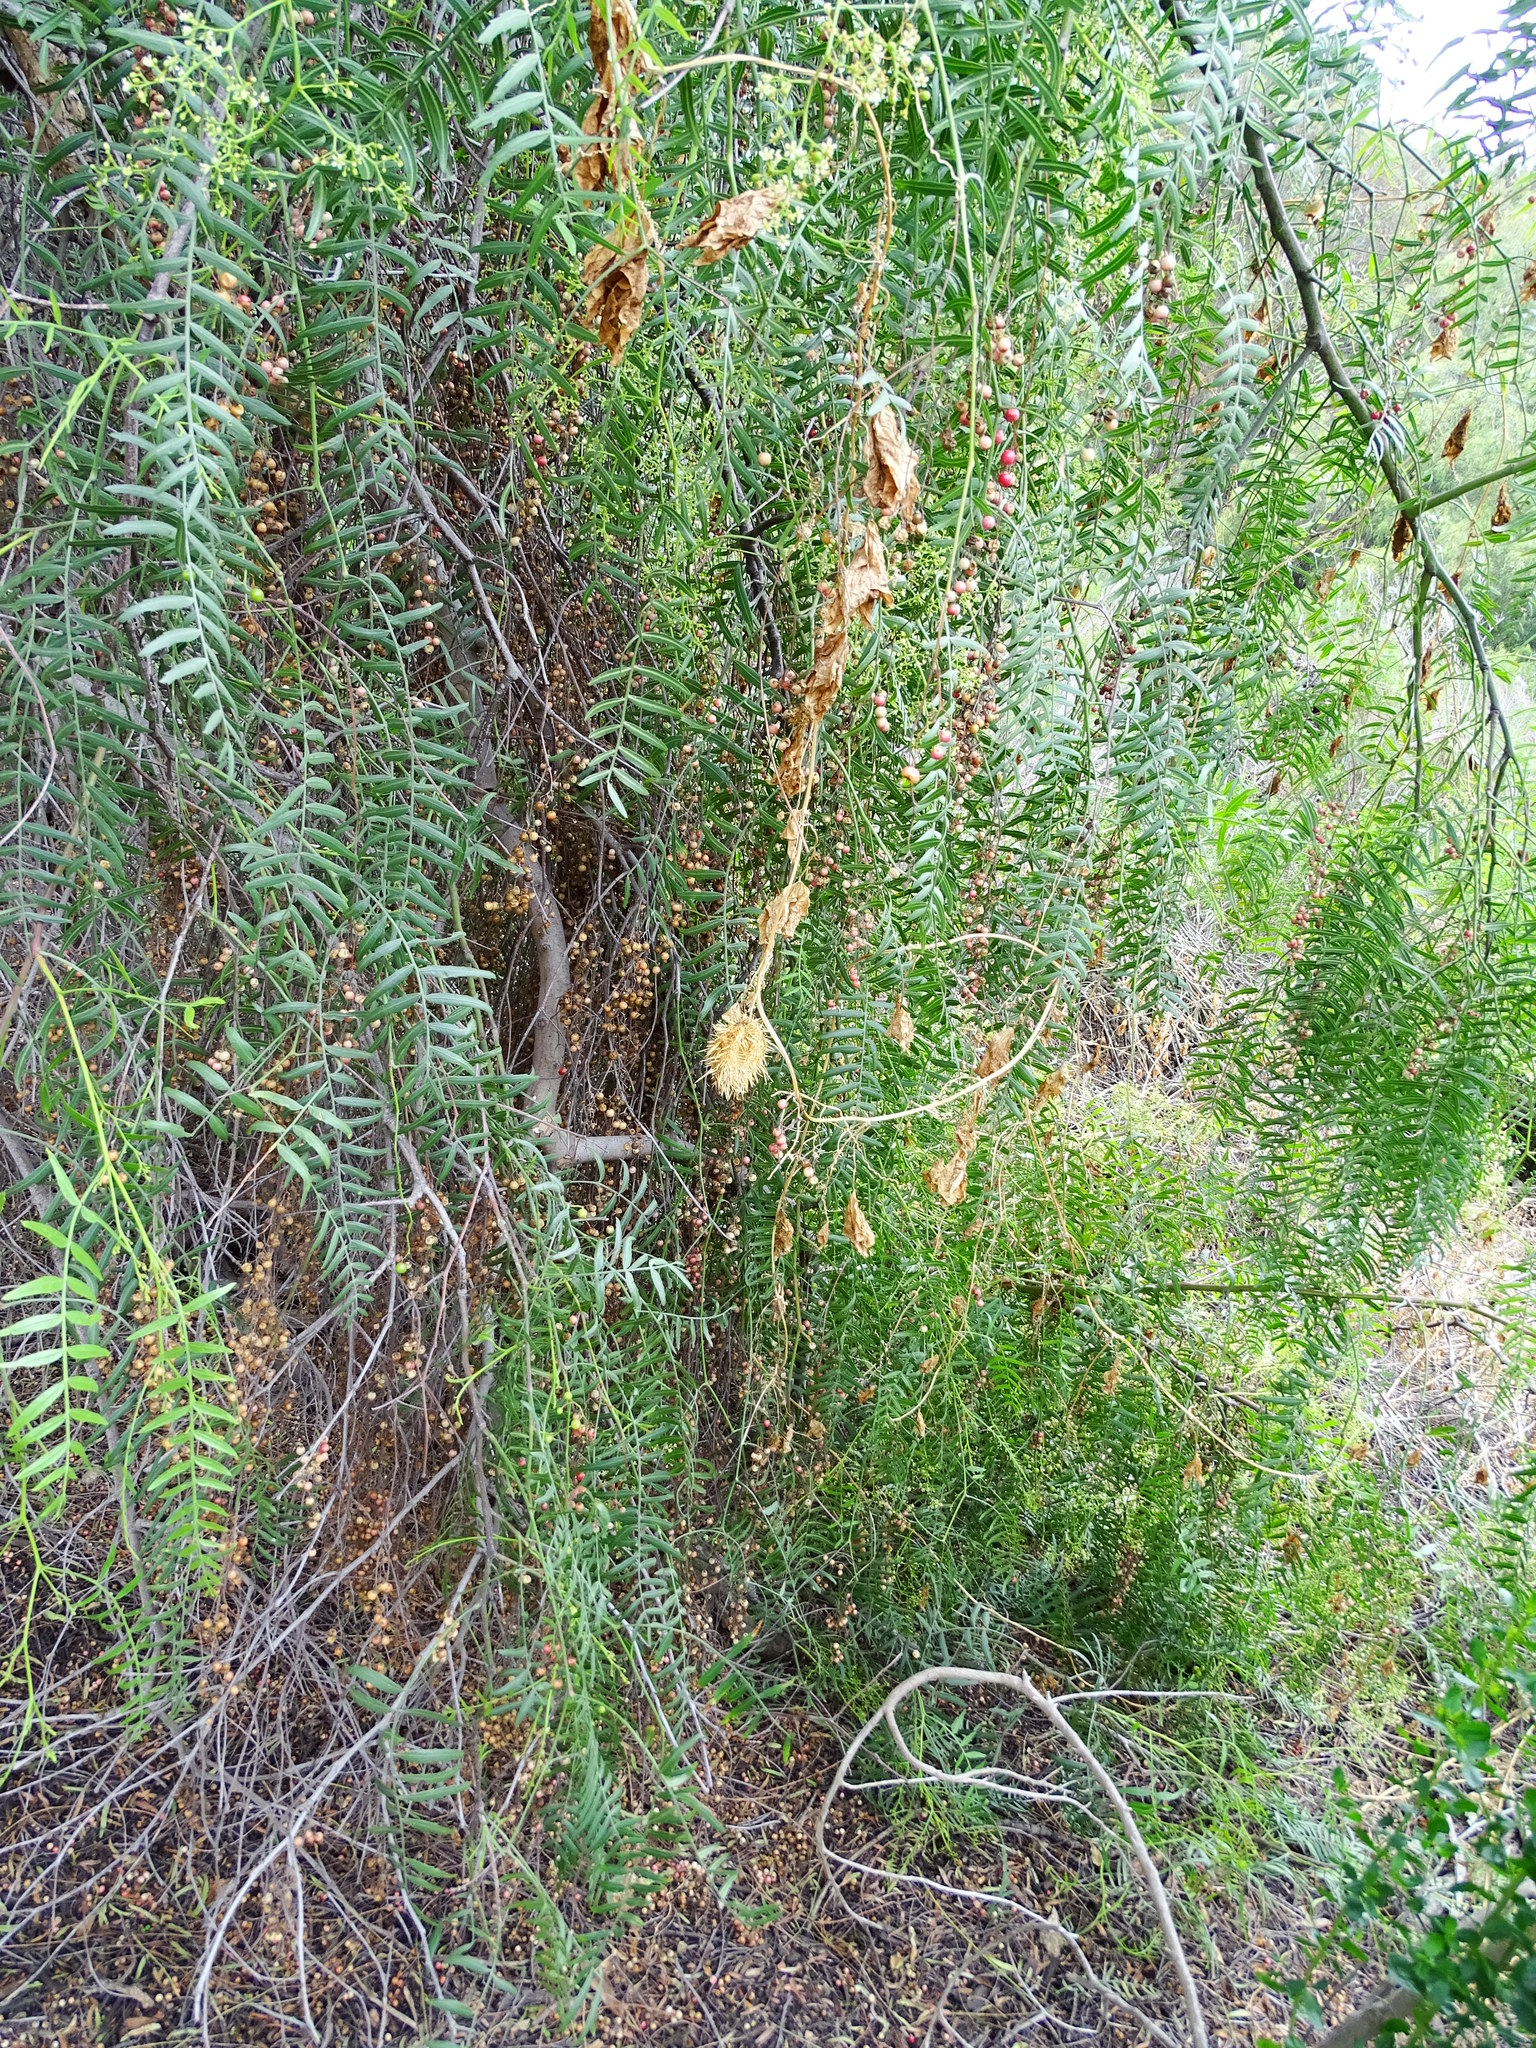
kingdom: Plantae
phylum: Tracheophyta
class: Magnoliopsida
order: Cucurbitales
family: Cucurbitaceae
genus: Marah
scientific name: Marah macrocarpa
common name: Cucamonga manroot
